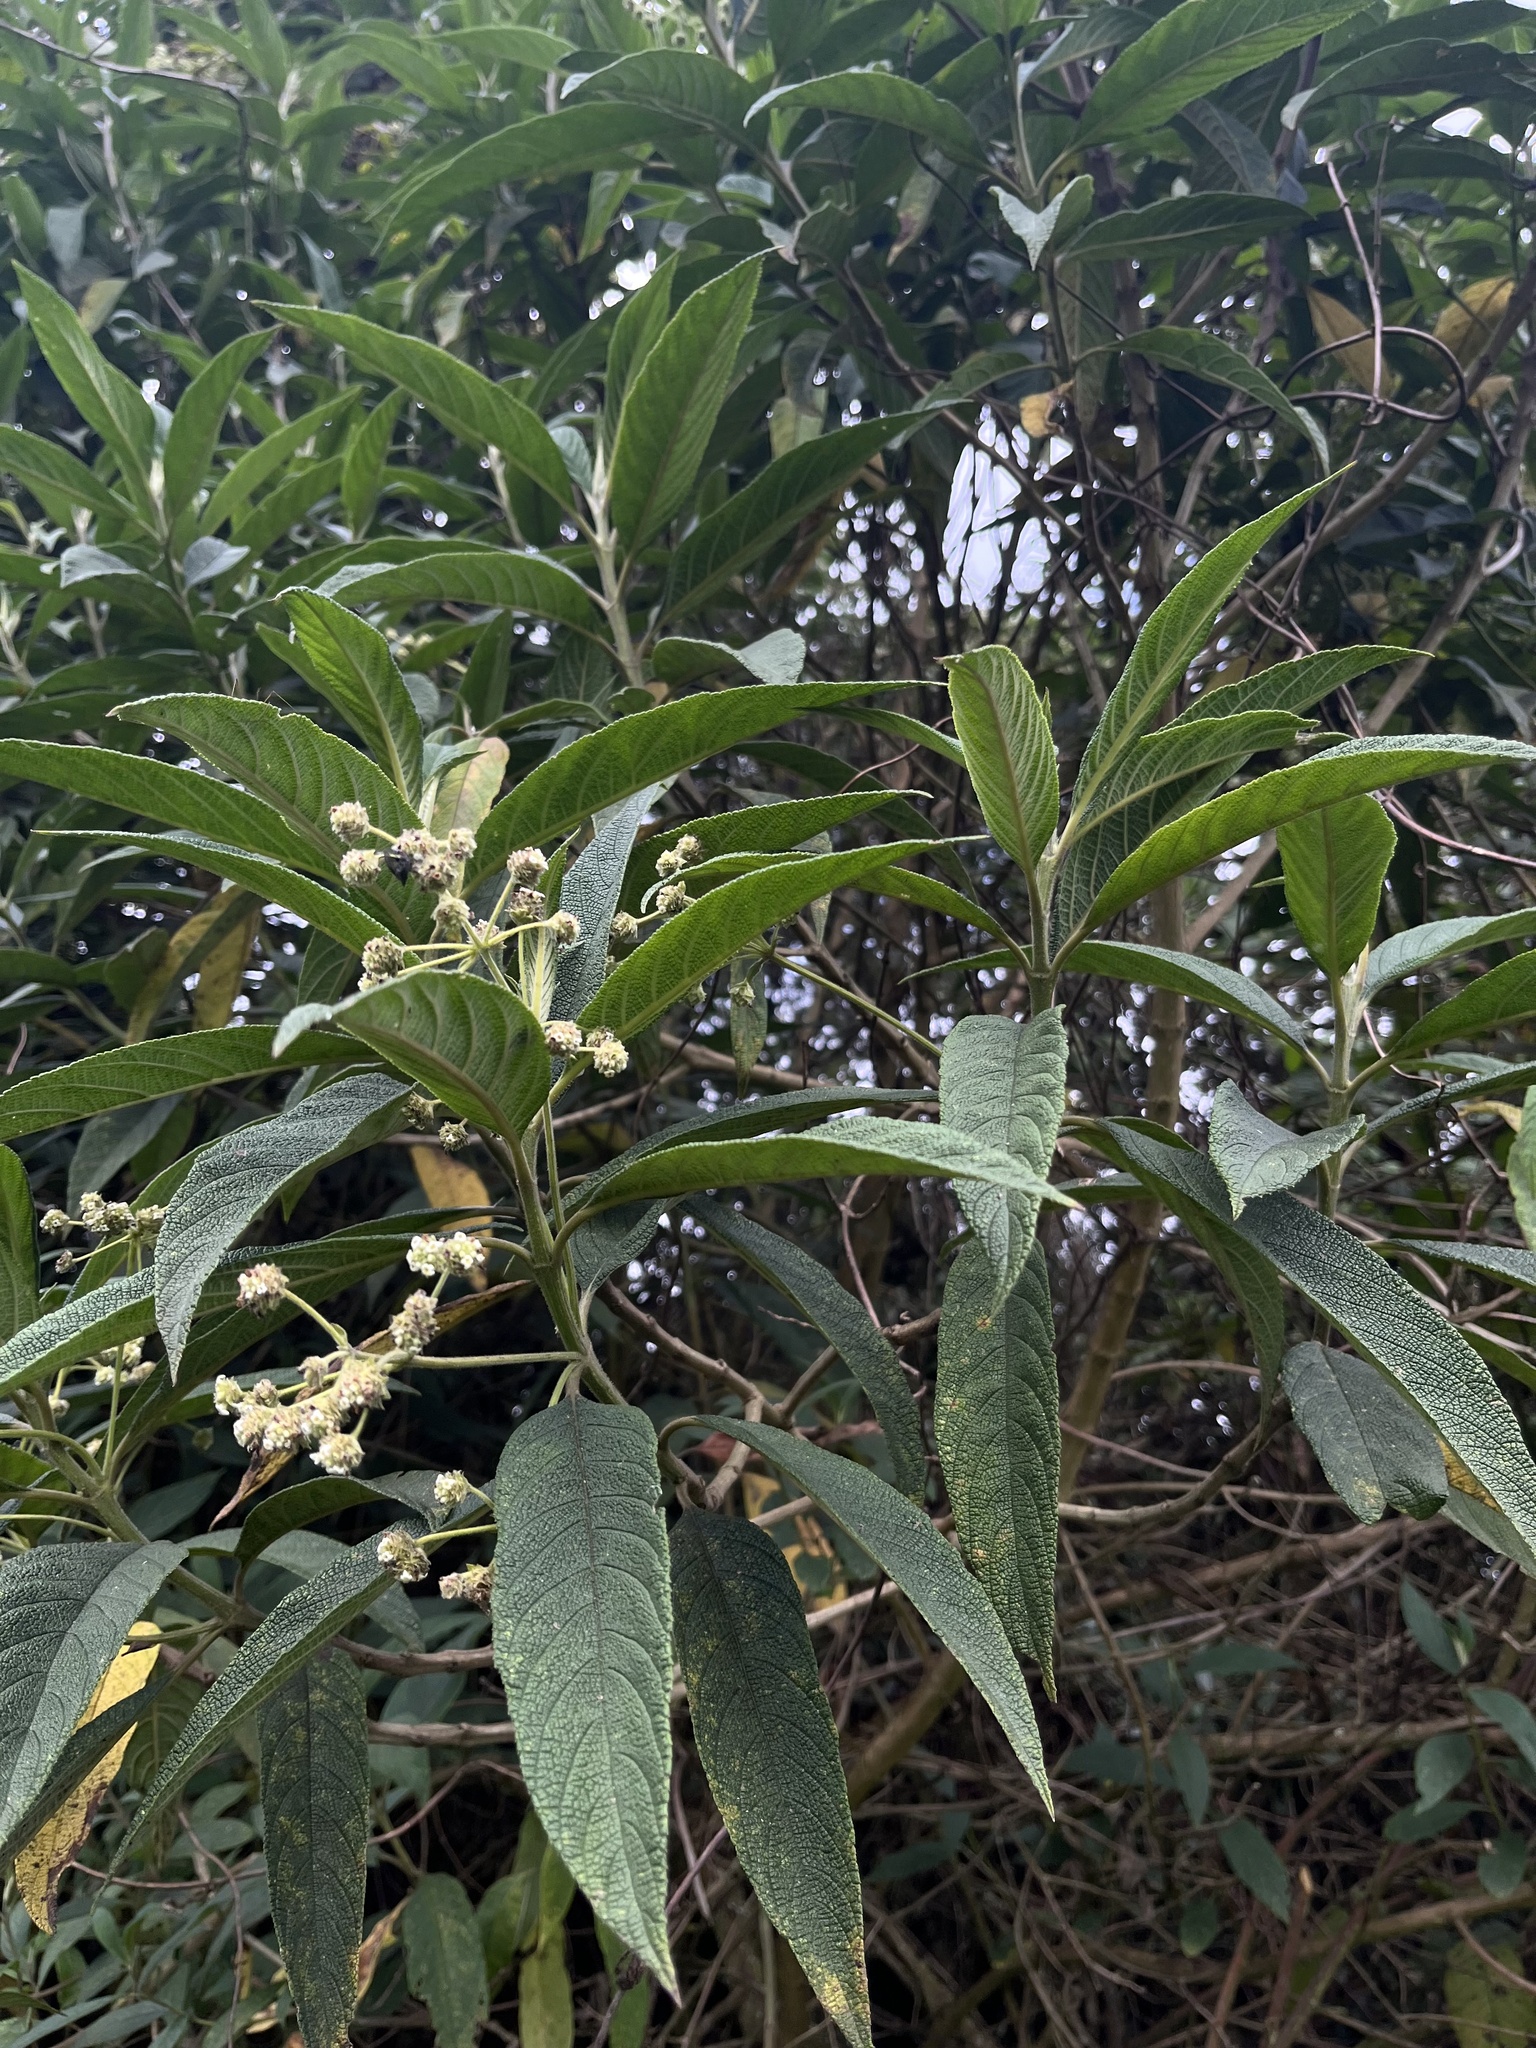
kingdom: Plantae
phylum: Tracheophyta
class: Magnoliopsida
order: Lamiales
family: Verbenaceae
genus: Lippia
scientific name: Lippia hirsuta
